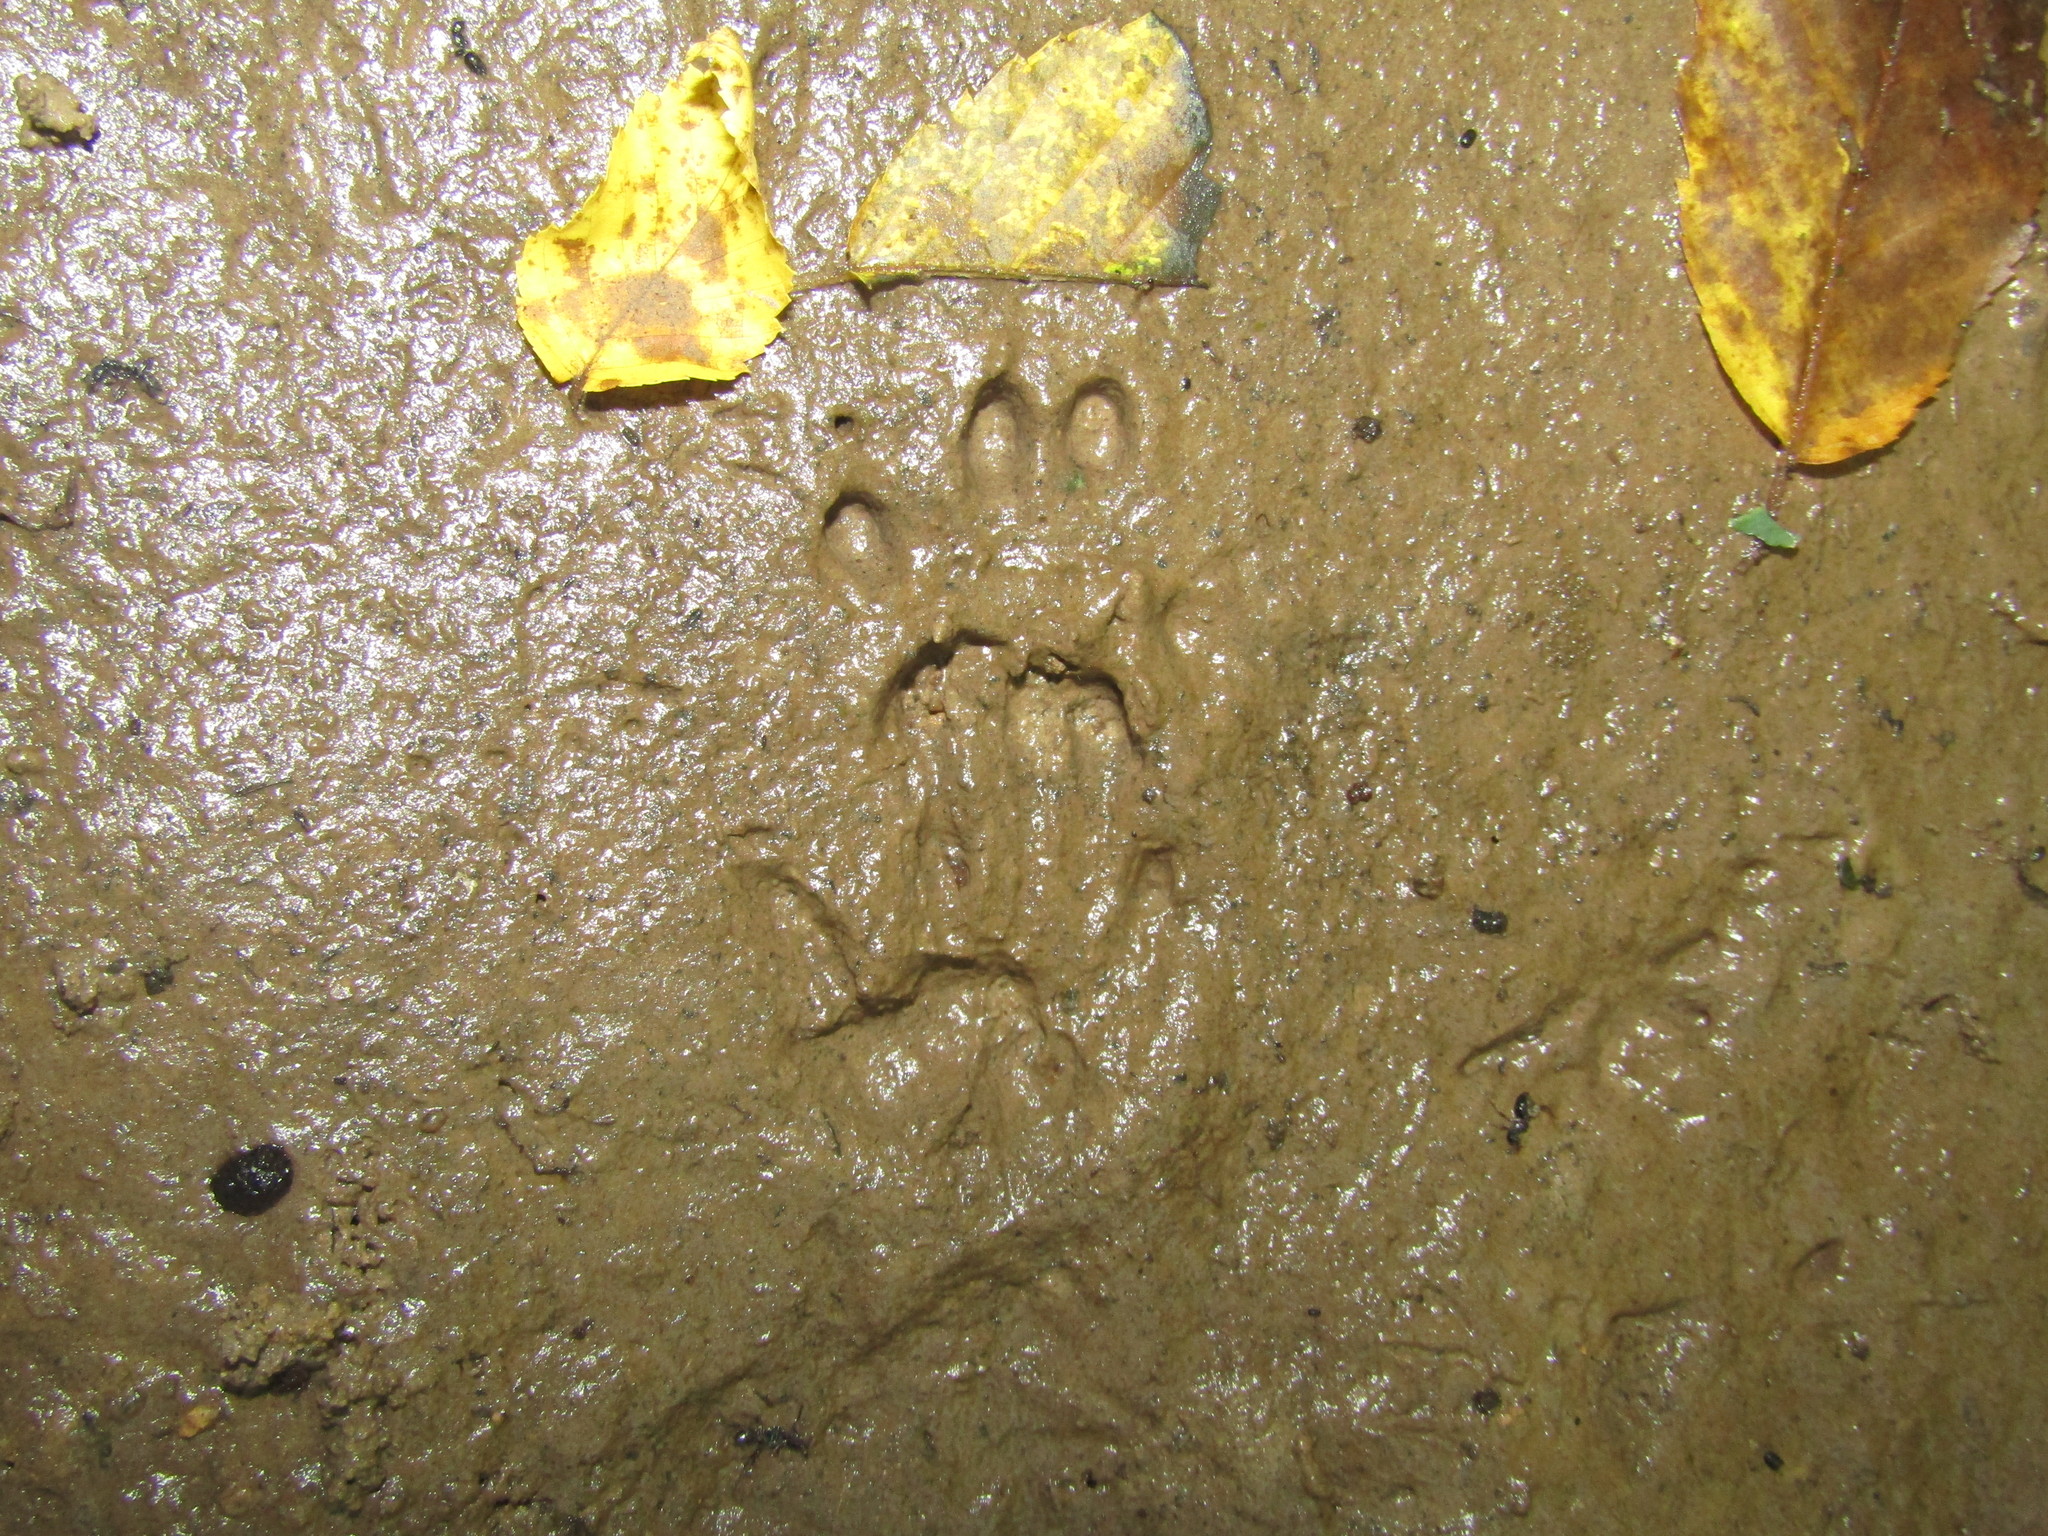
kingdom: Animalia
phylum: Chordata
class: Mammalia
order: Carnivora
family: Procyonidae
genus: Procyon
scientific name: Procyon lotor
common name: Raccoon
